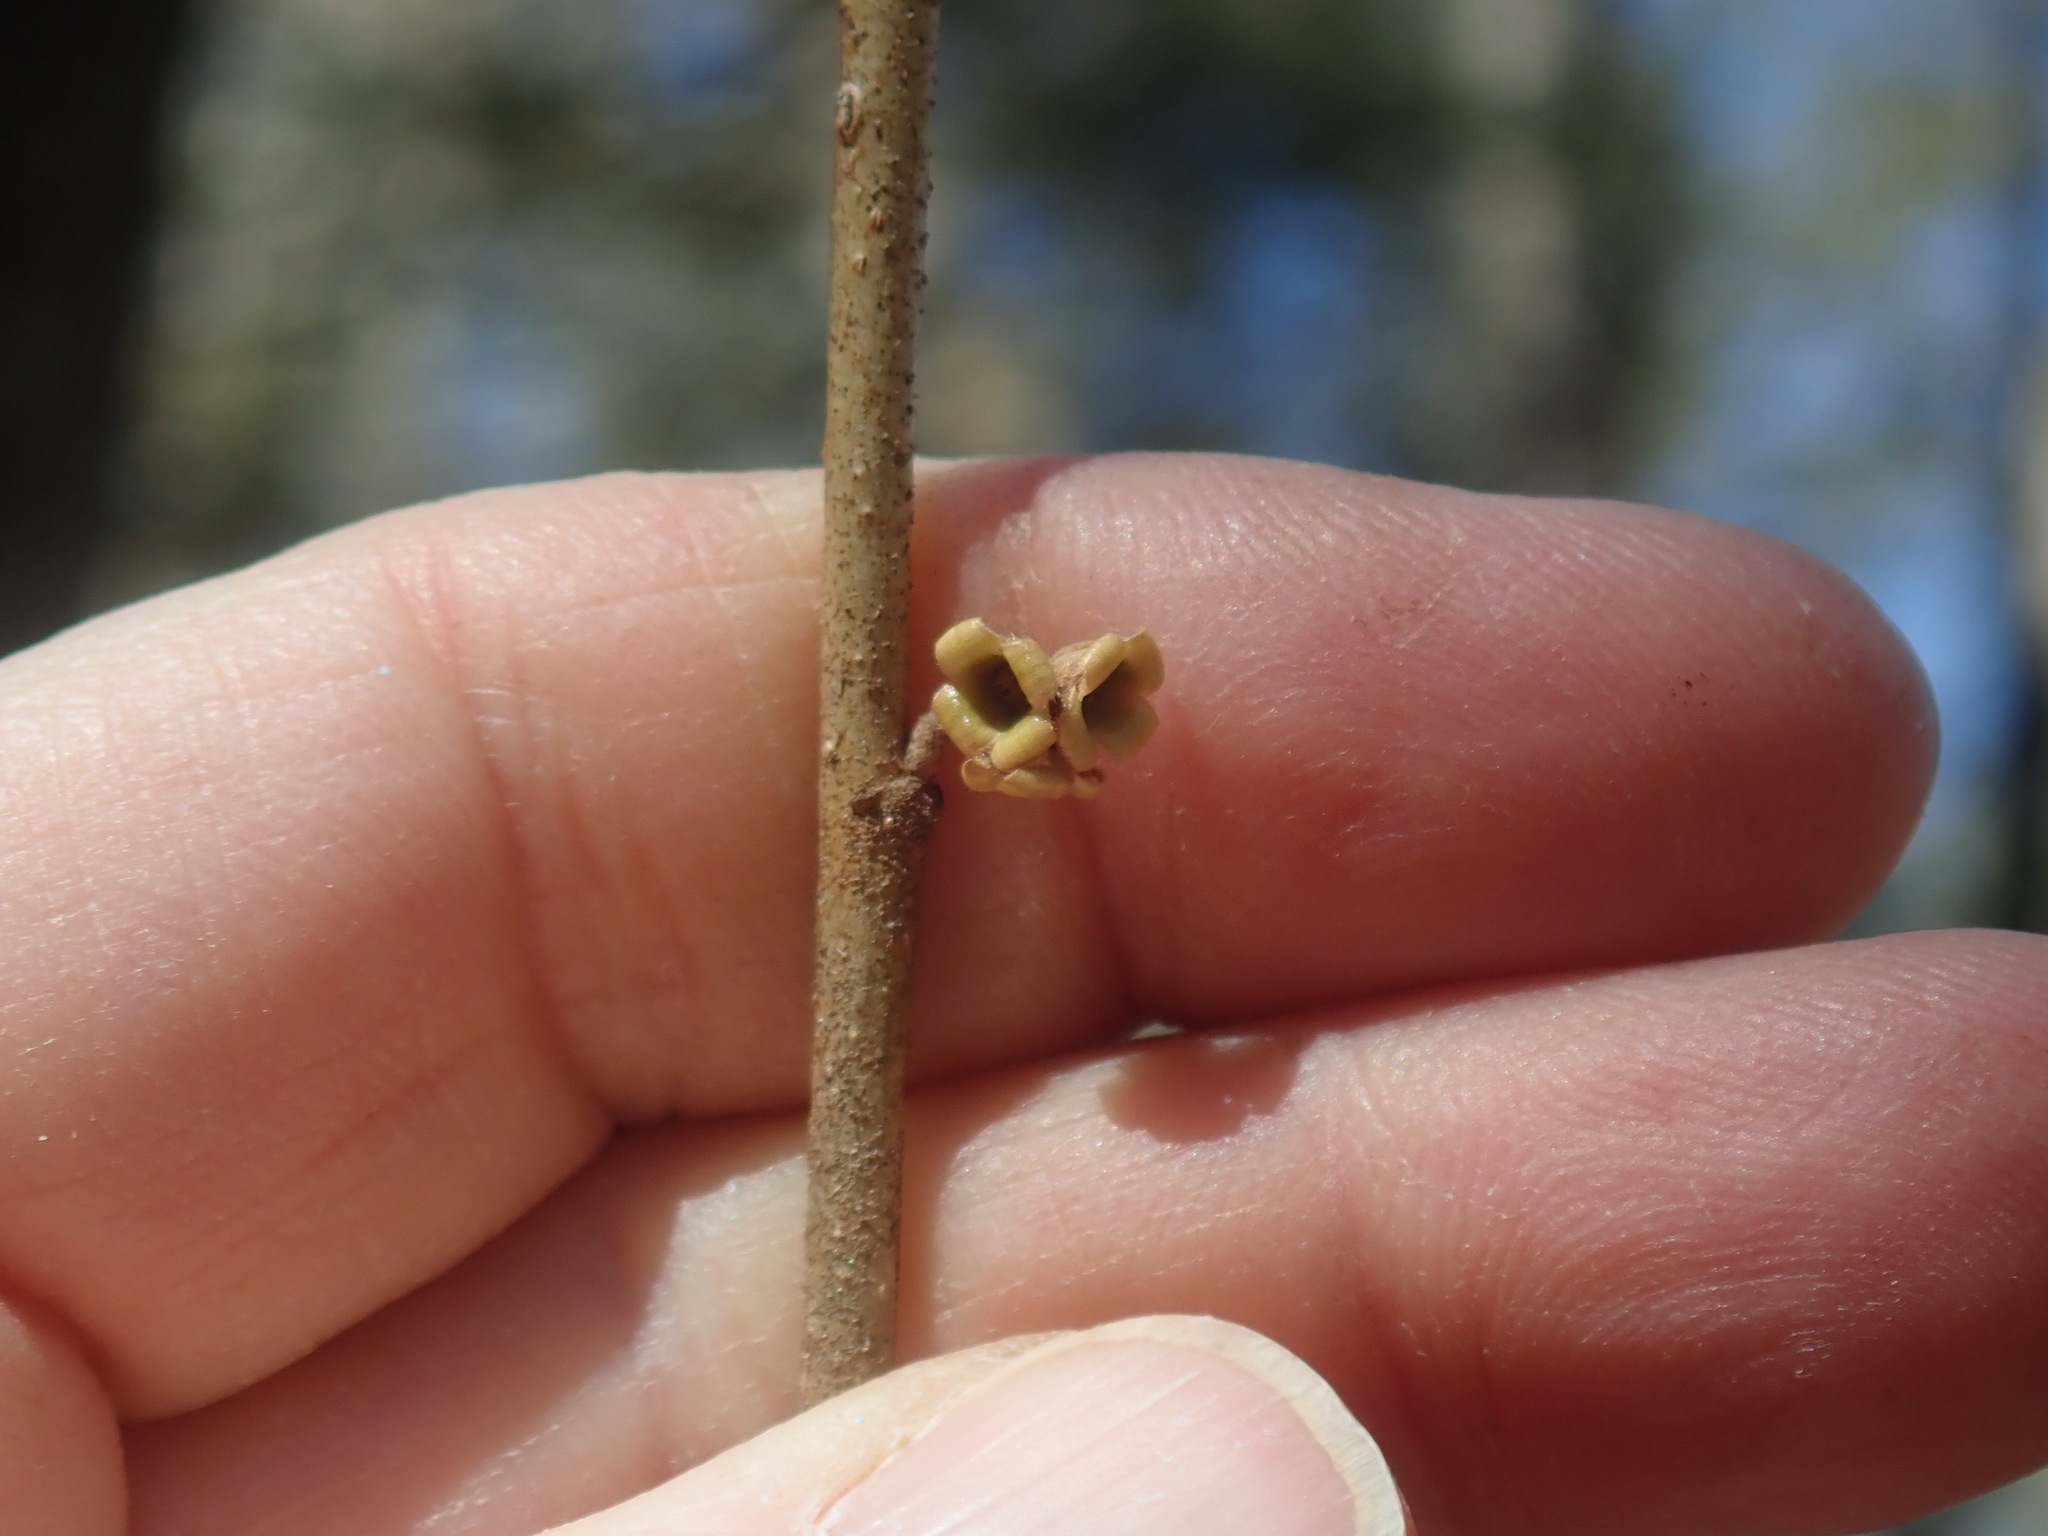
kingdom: Plantae
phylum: Tracheophyta
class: Magnoliopsida
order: Saxifragales
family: Hamamelidaceae
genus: Hamamelis
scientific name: Hamamelis virginiana
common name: Witch-hazel
